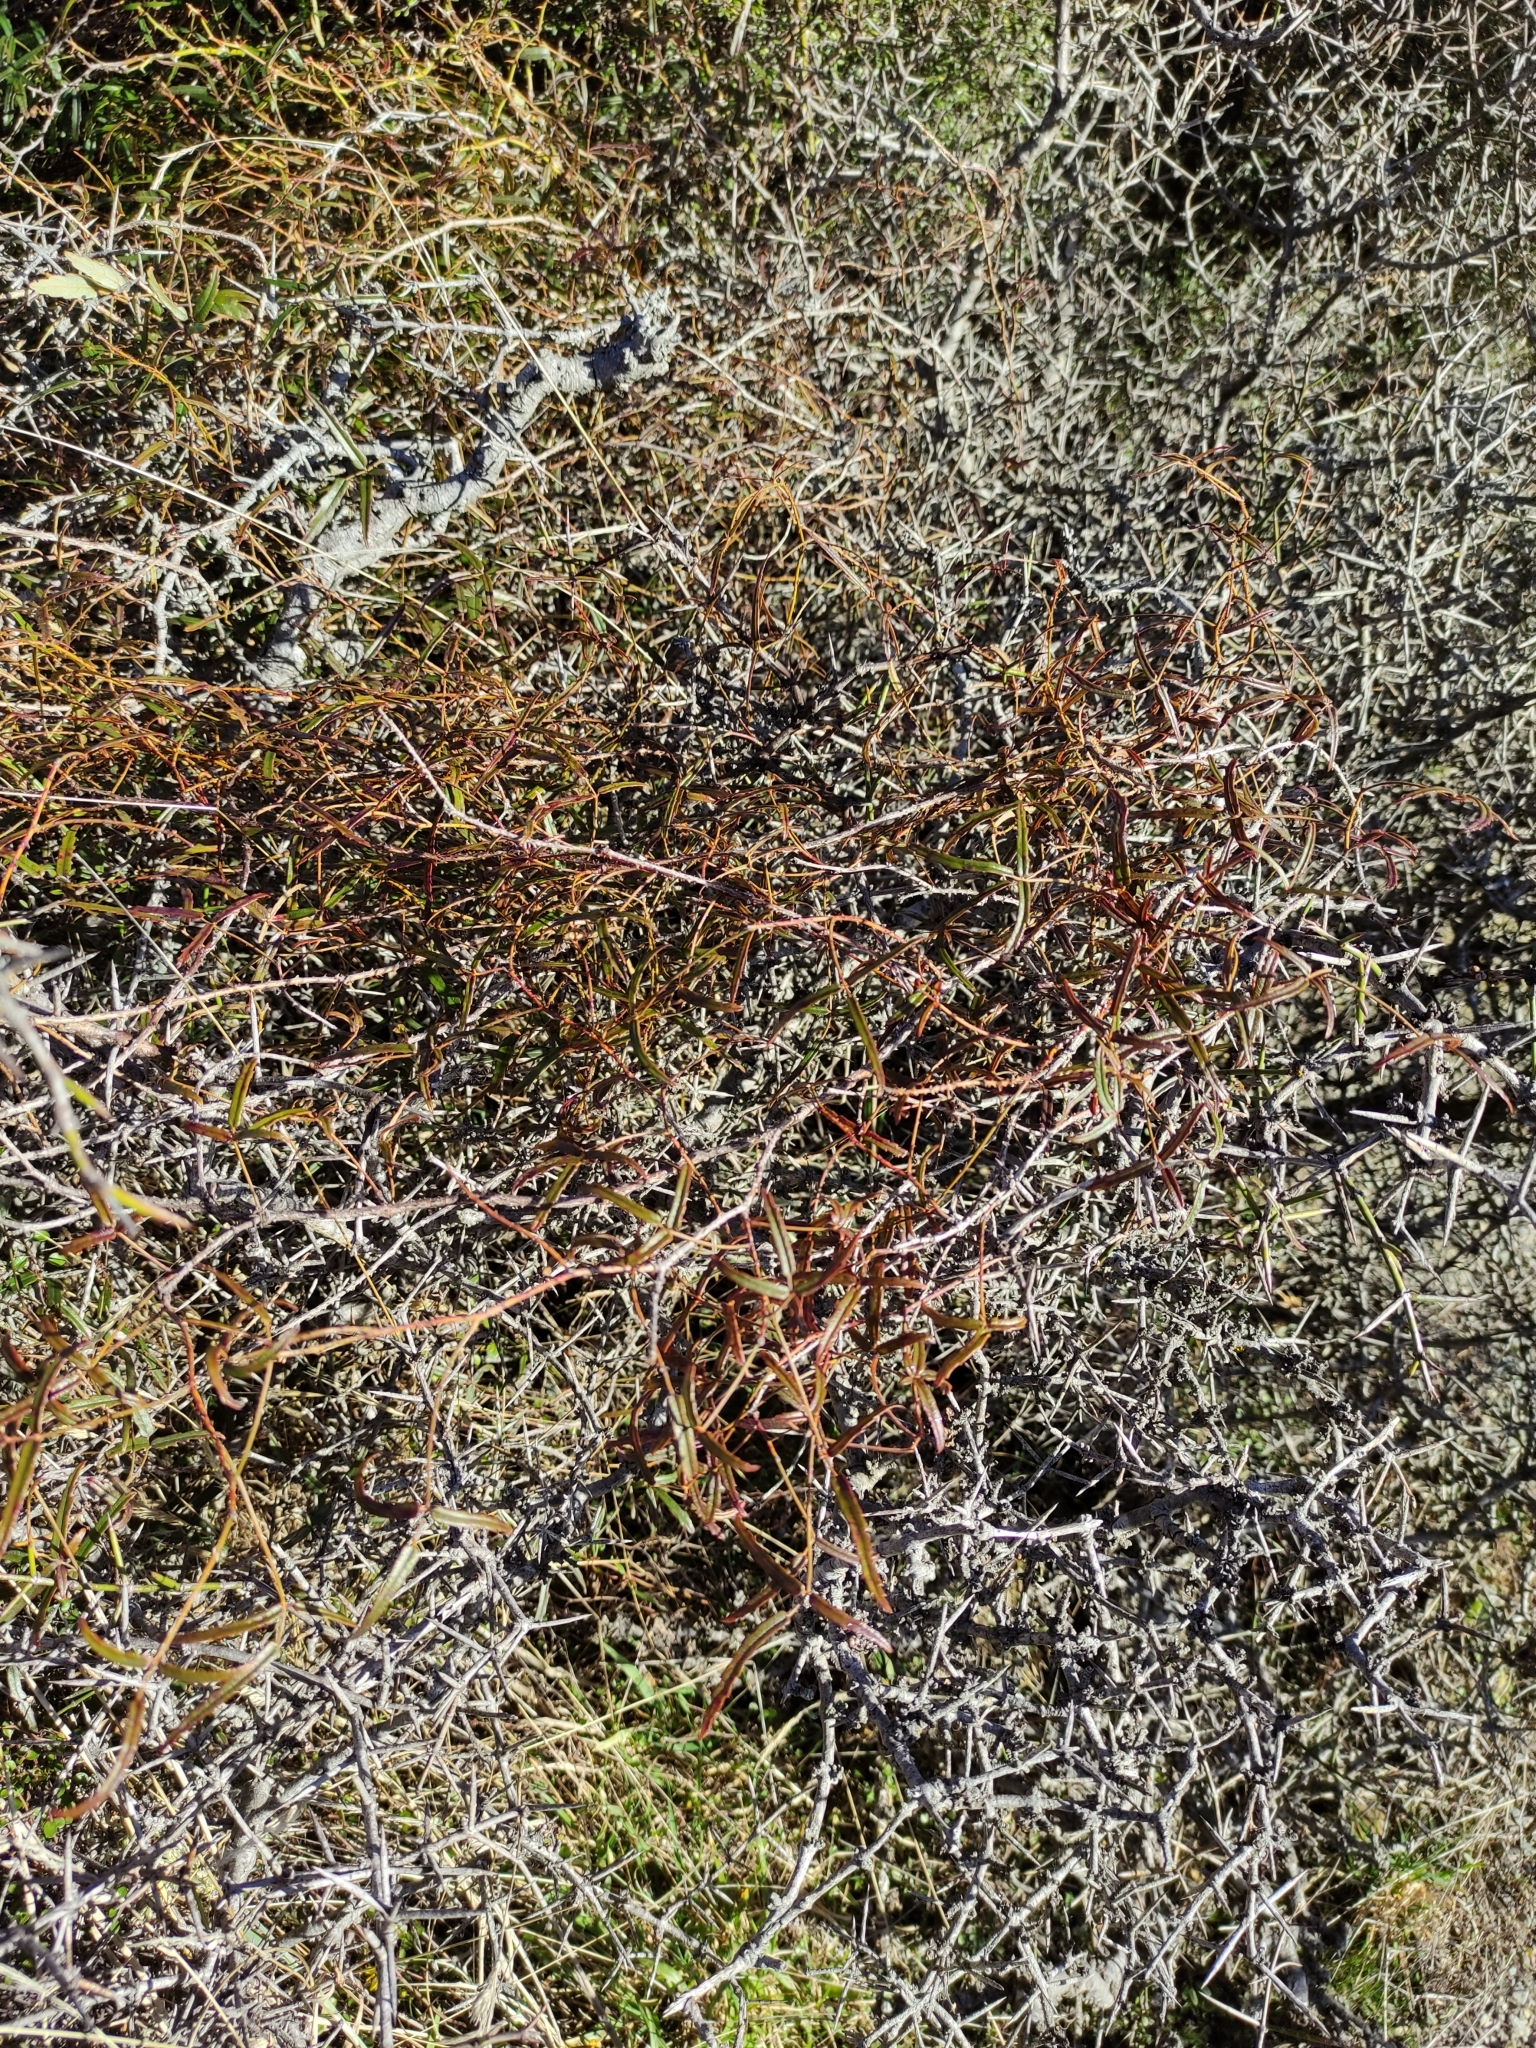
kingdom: Plantae
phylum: Tracheophyta
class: Magnoliopsida
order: Rosales
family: Rosaceae
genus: Rubus
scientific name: Rubus schmidelioides
